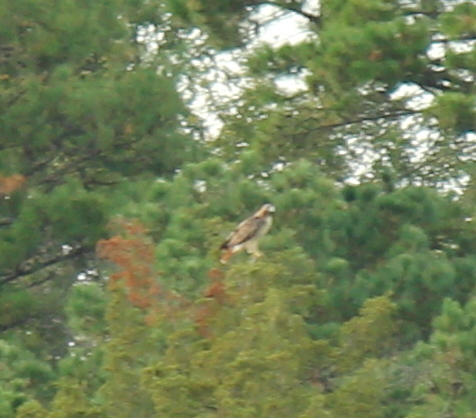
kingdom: Animalia
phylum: Chordata
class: Aves
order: Accipitriformes
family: Accipitridae
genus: Buteo
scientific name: Buteo jamaicensis
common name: Red-tailed hawk
